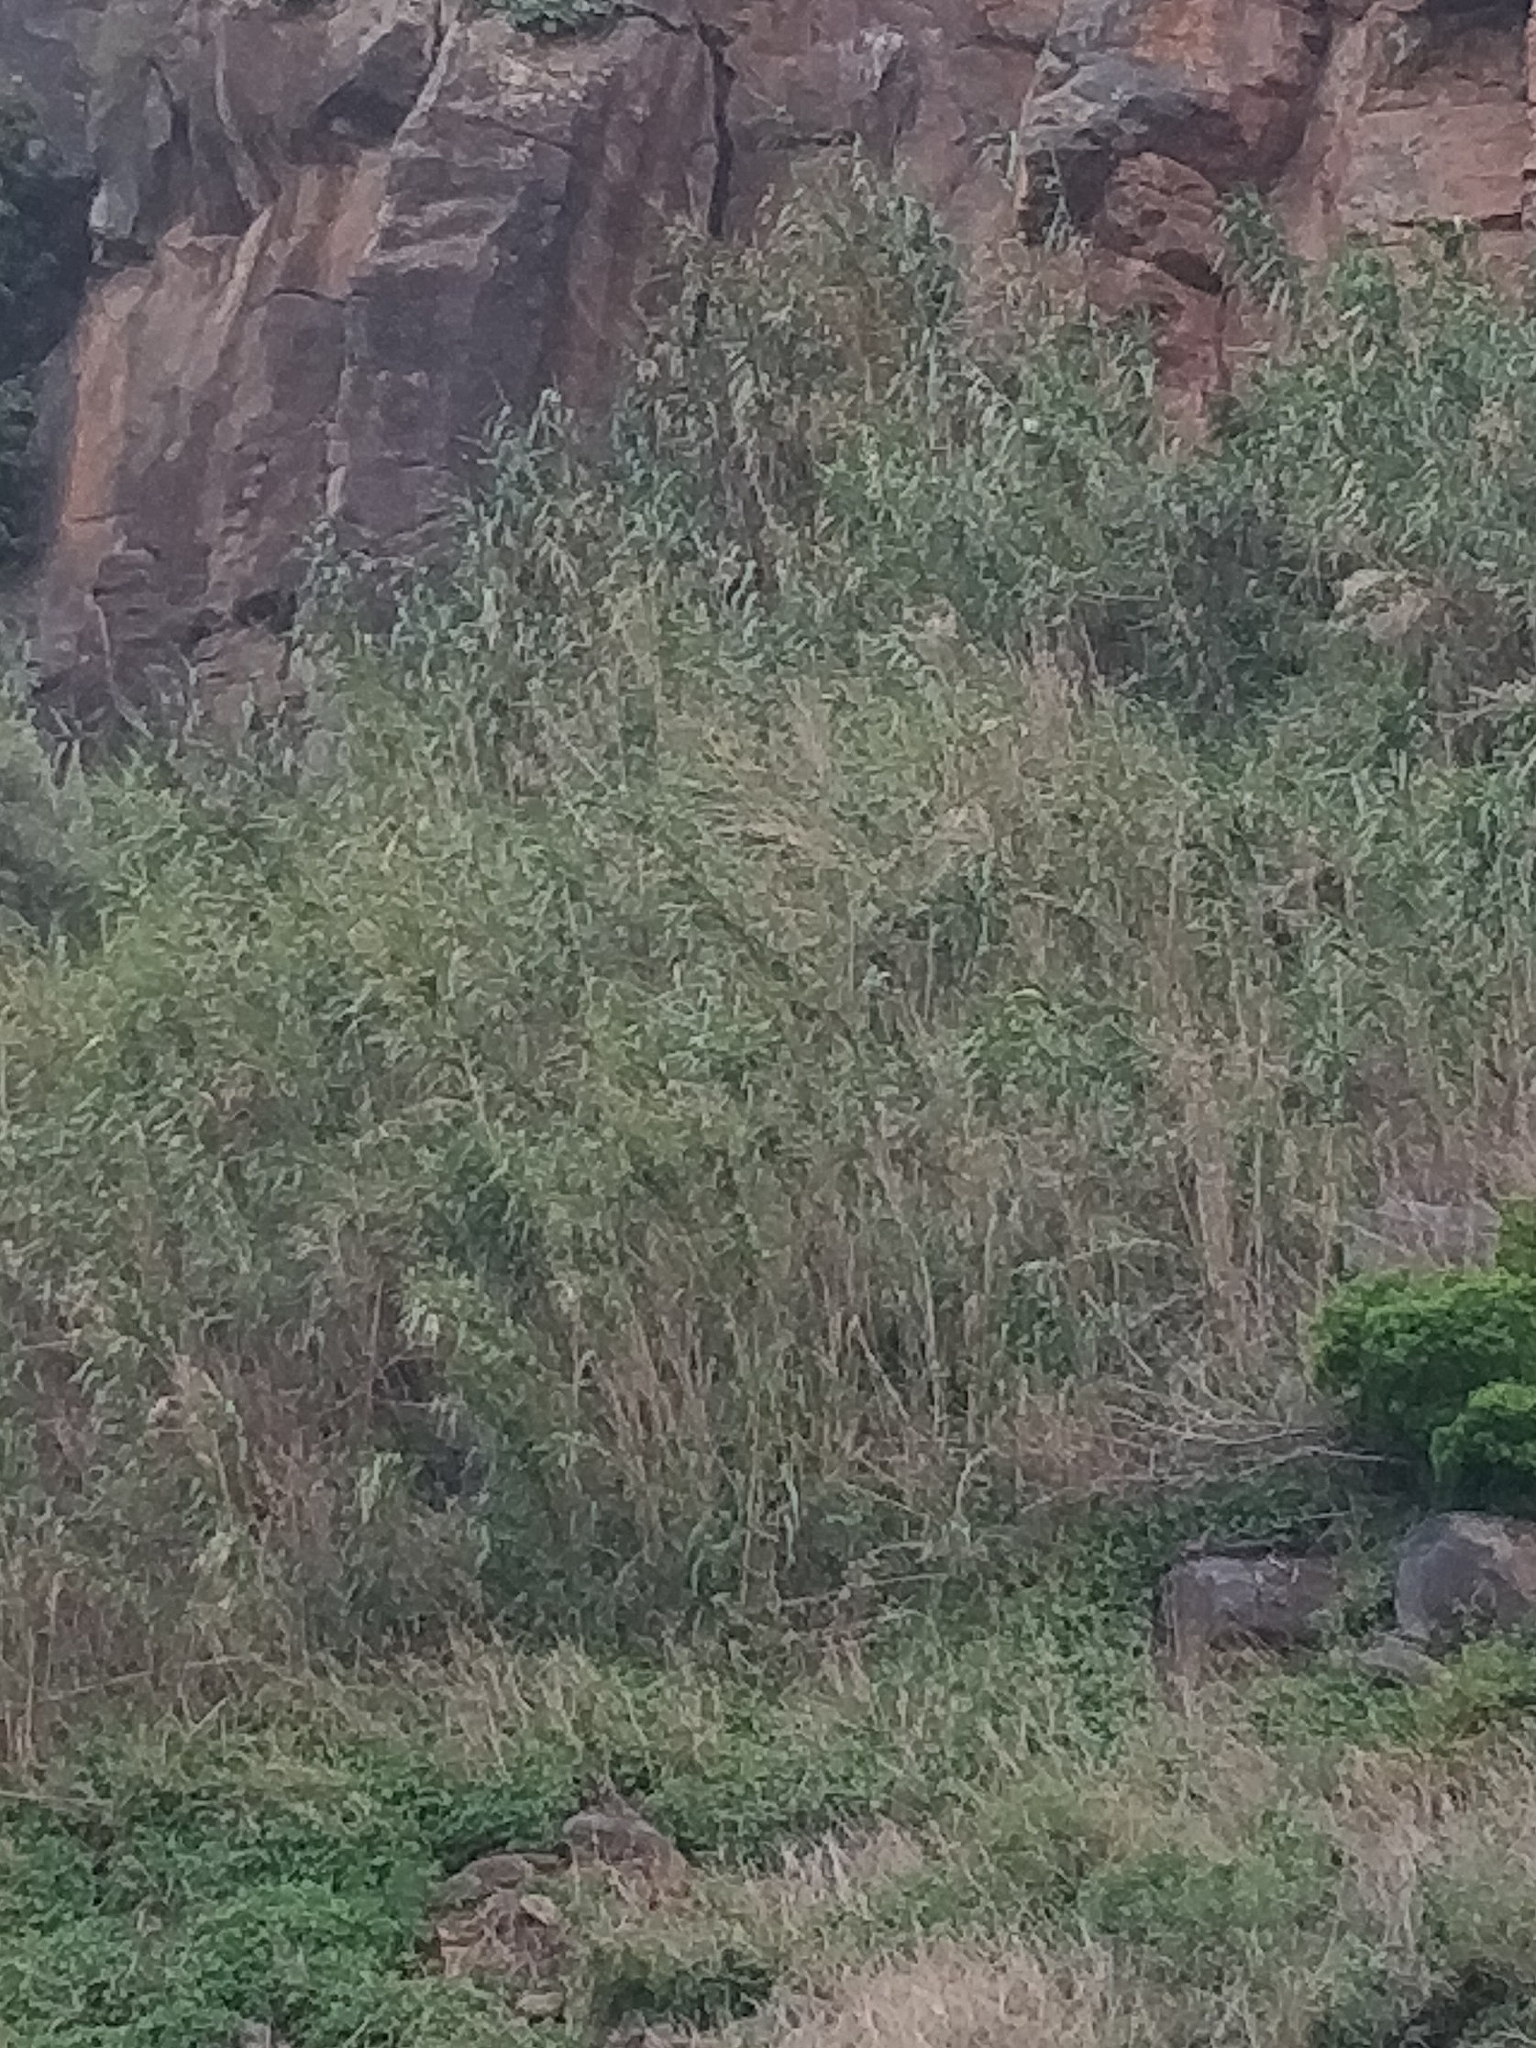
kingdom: Plantae
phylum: Tracheophyta
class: Liliopsida
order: Poales
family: Poaceae
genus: Arundo
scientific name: Arundo donax
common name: Giant reed
